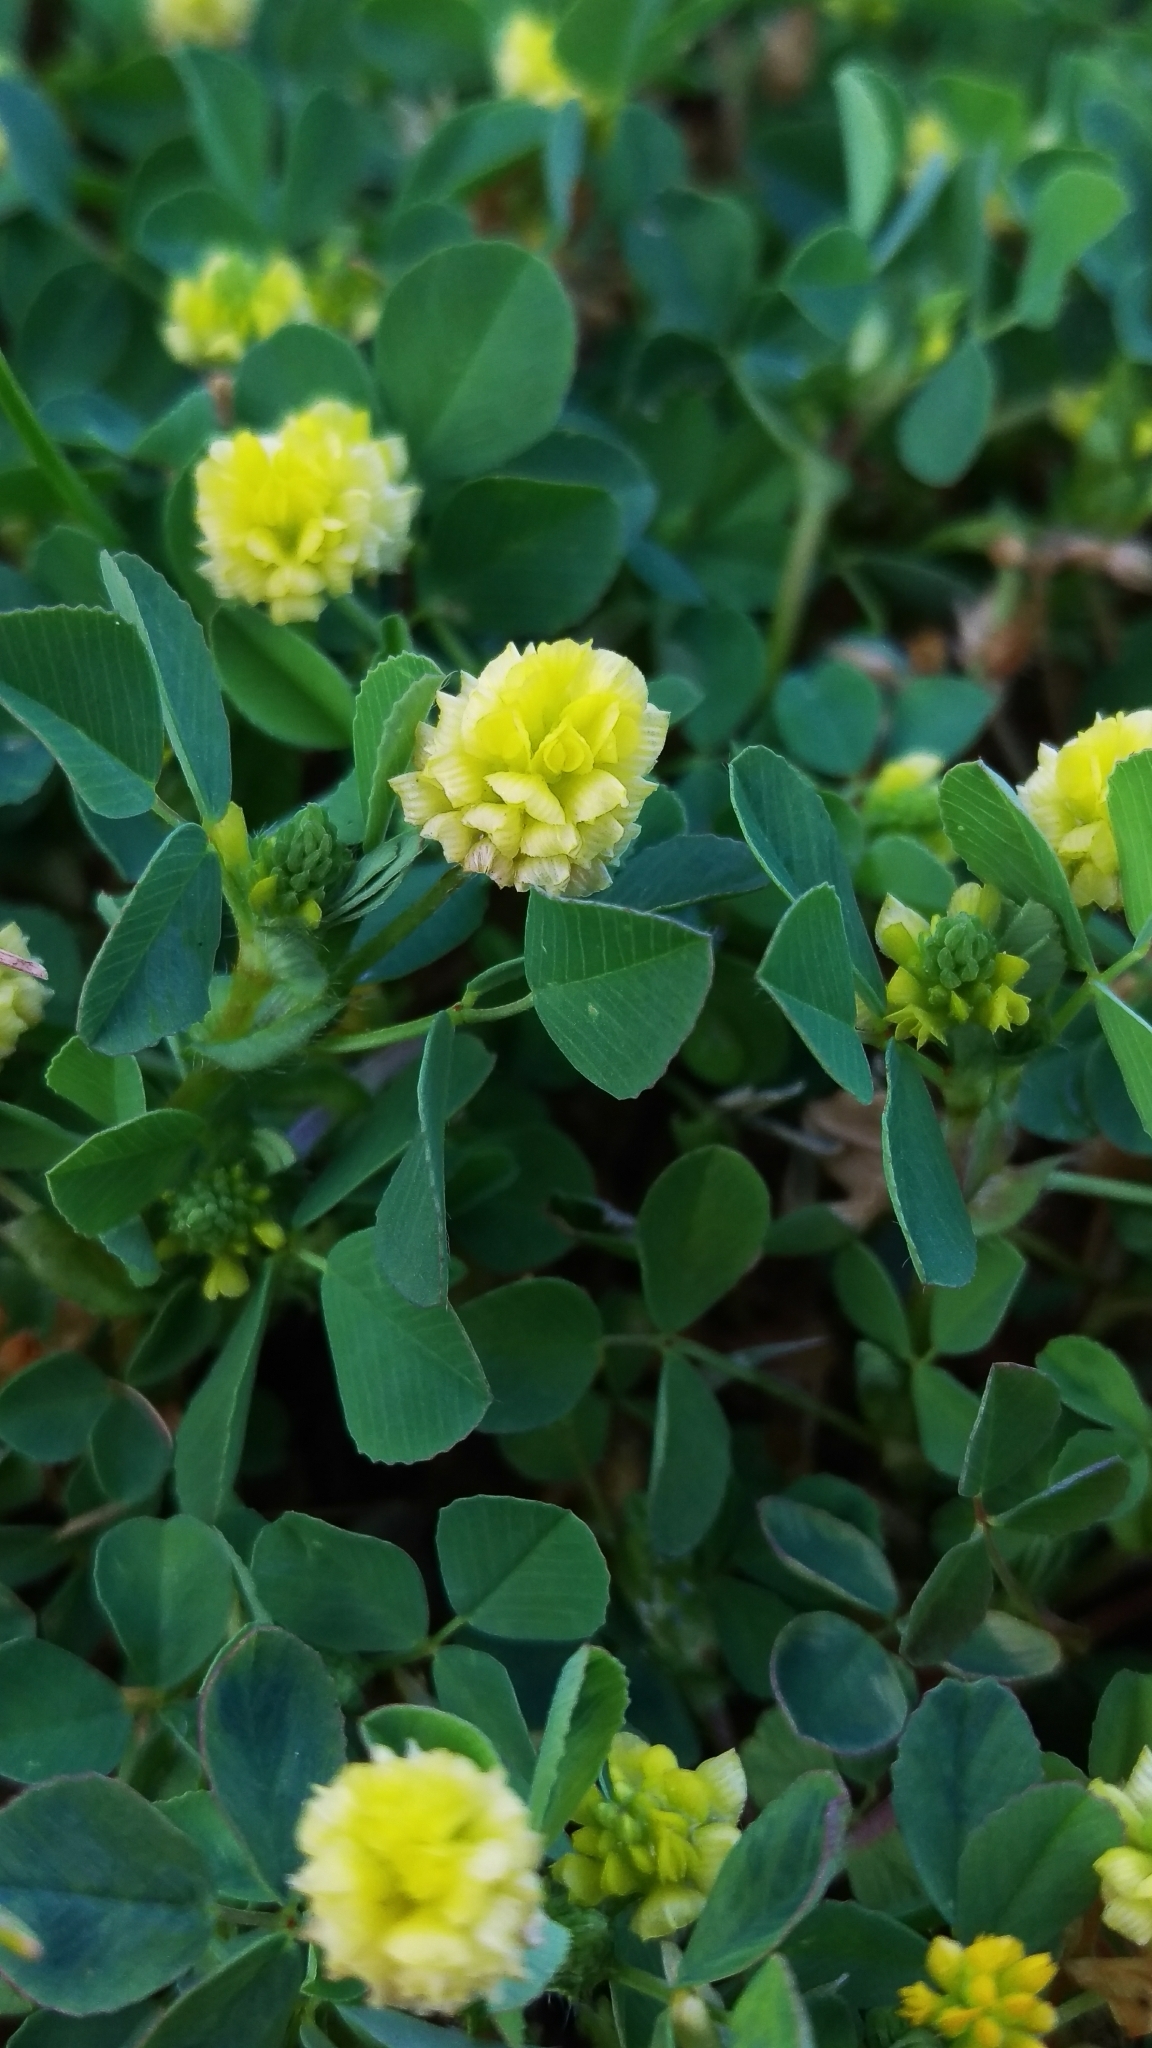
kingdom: Plantae
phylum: Tracheophyta
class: Magnoliopsida
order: Fabales
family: Fabaceae
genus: Trifolium
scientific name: Trifolium campestre
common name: Field clover
